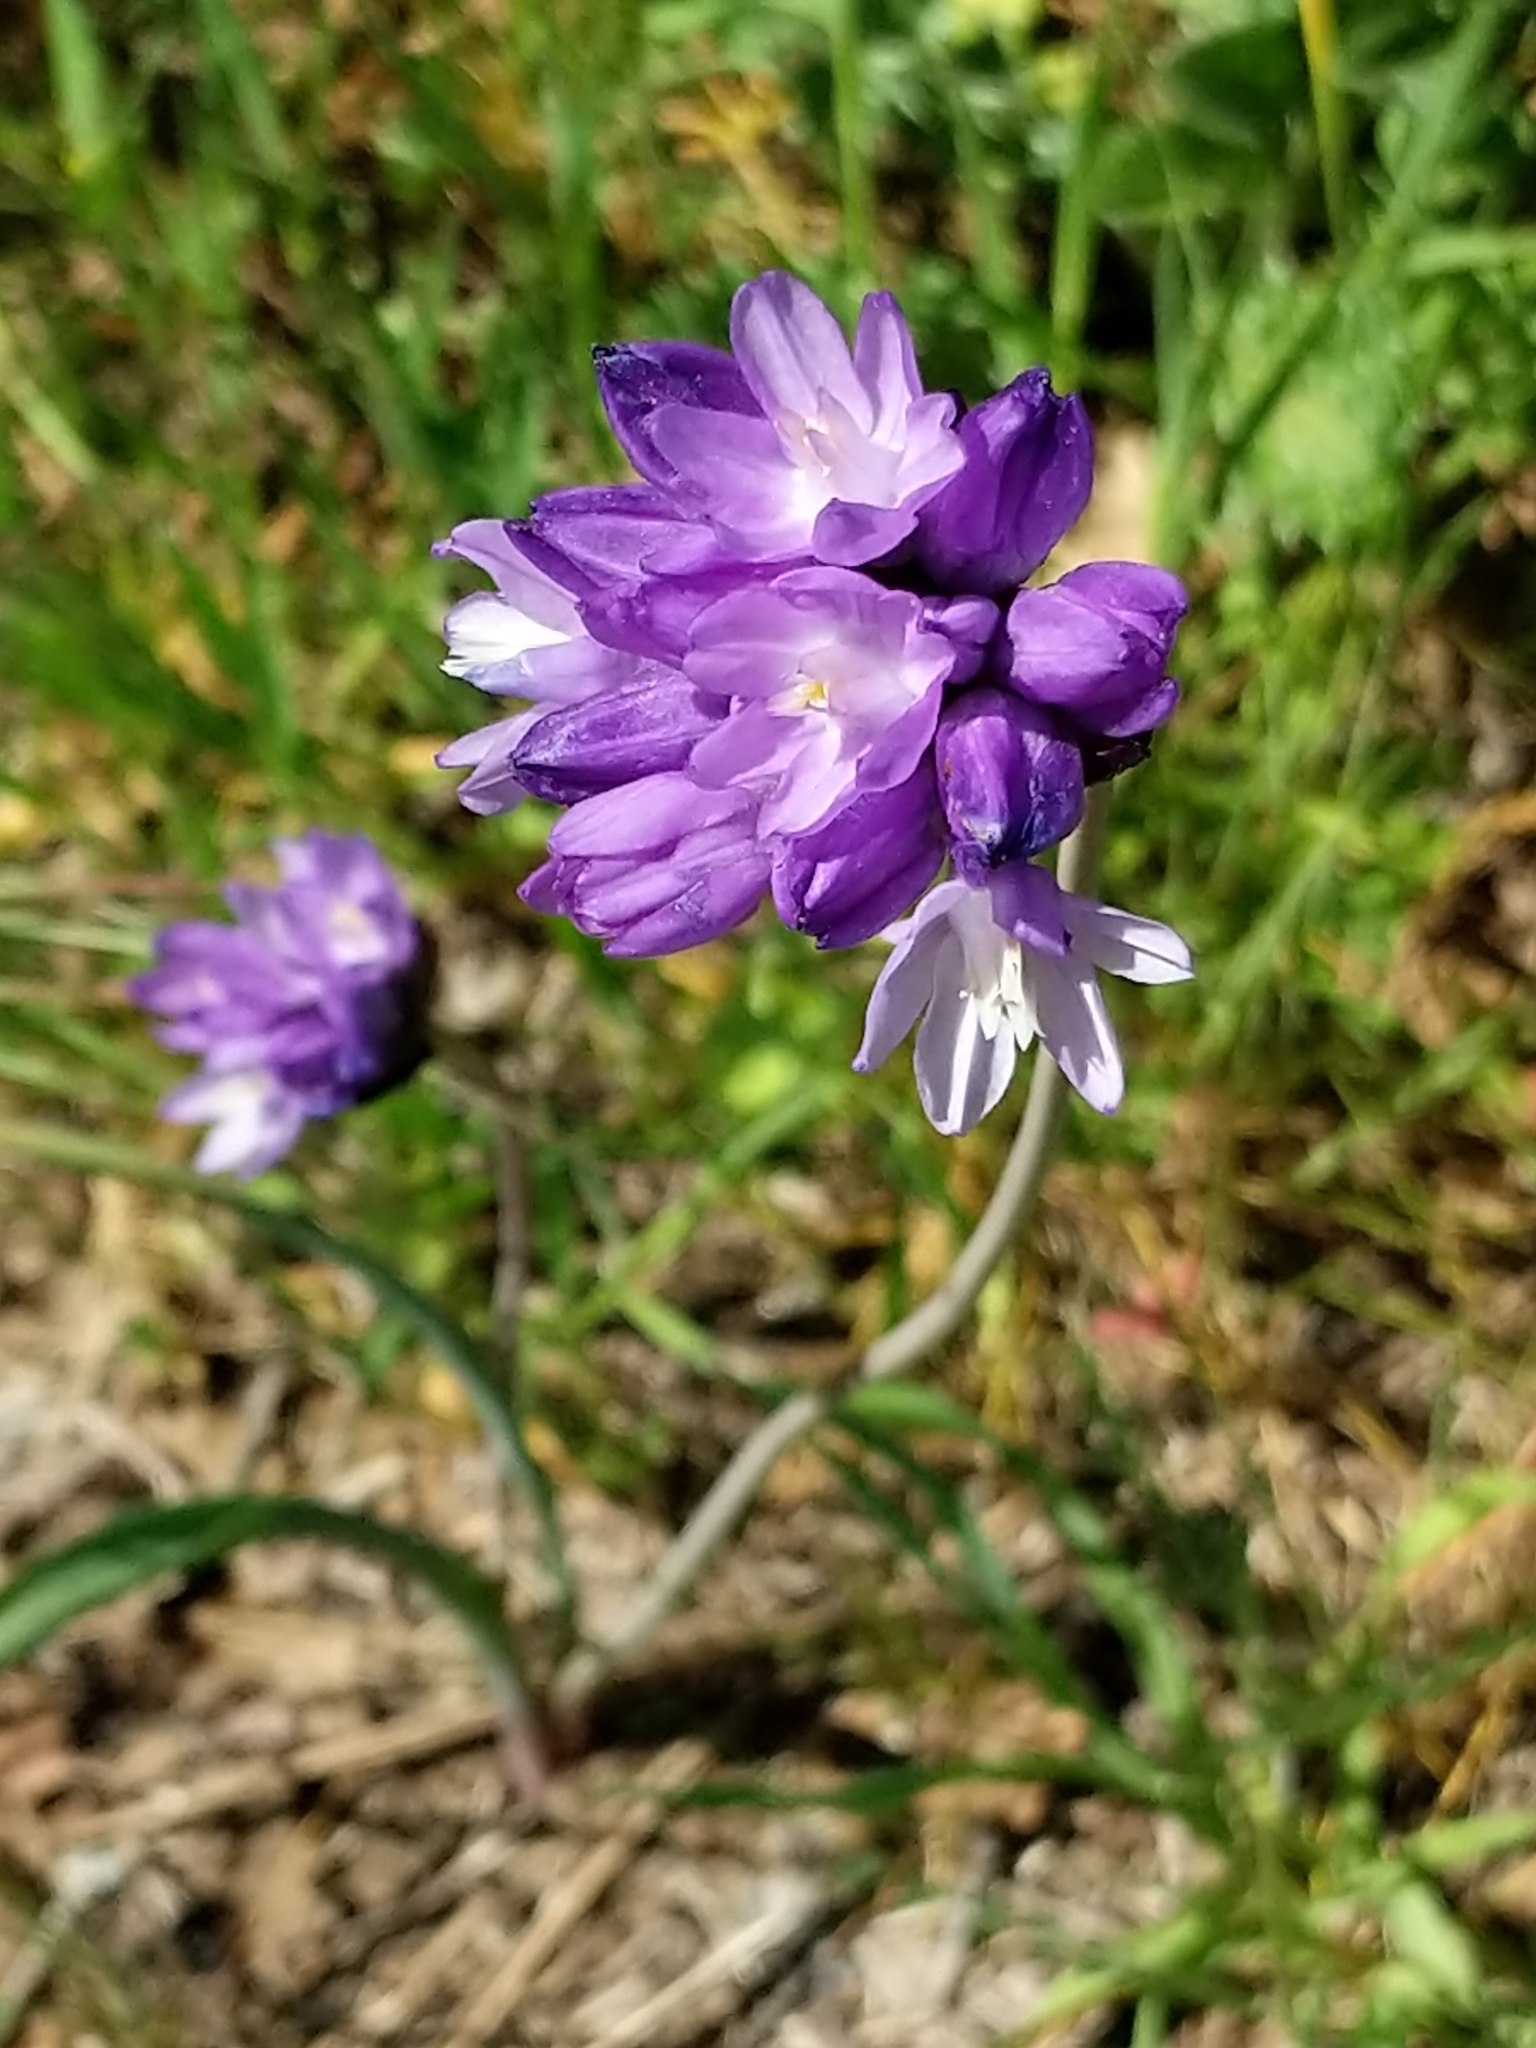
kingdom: Plantae
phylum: Tracheophyta
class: Liliopsida
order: Asparagales
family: Asparagaceae
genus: Dipterostemon
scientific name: Dipterostemon capitatus
